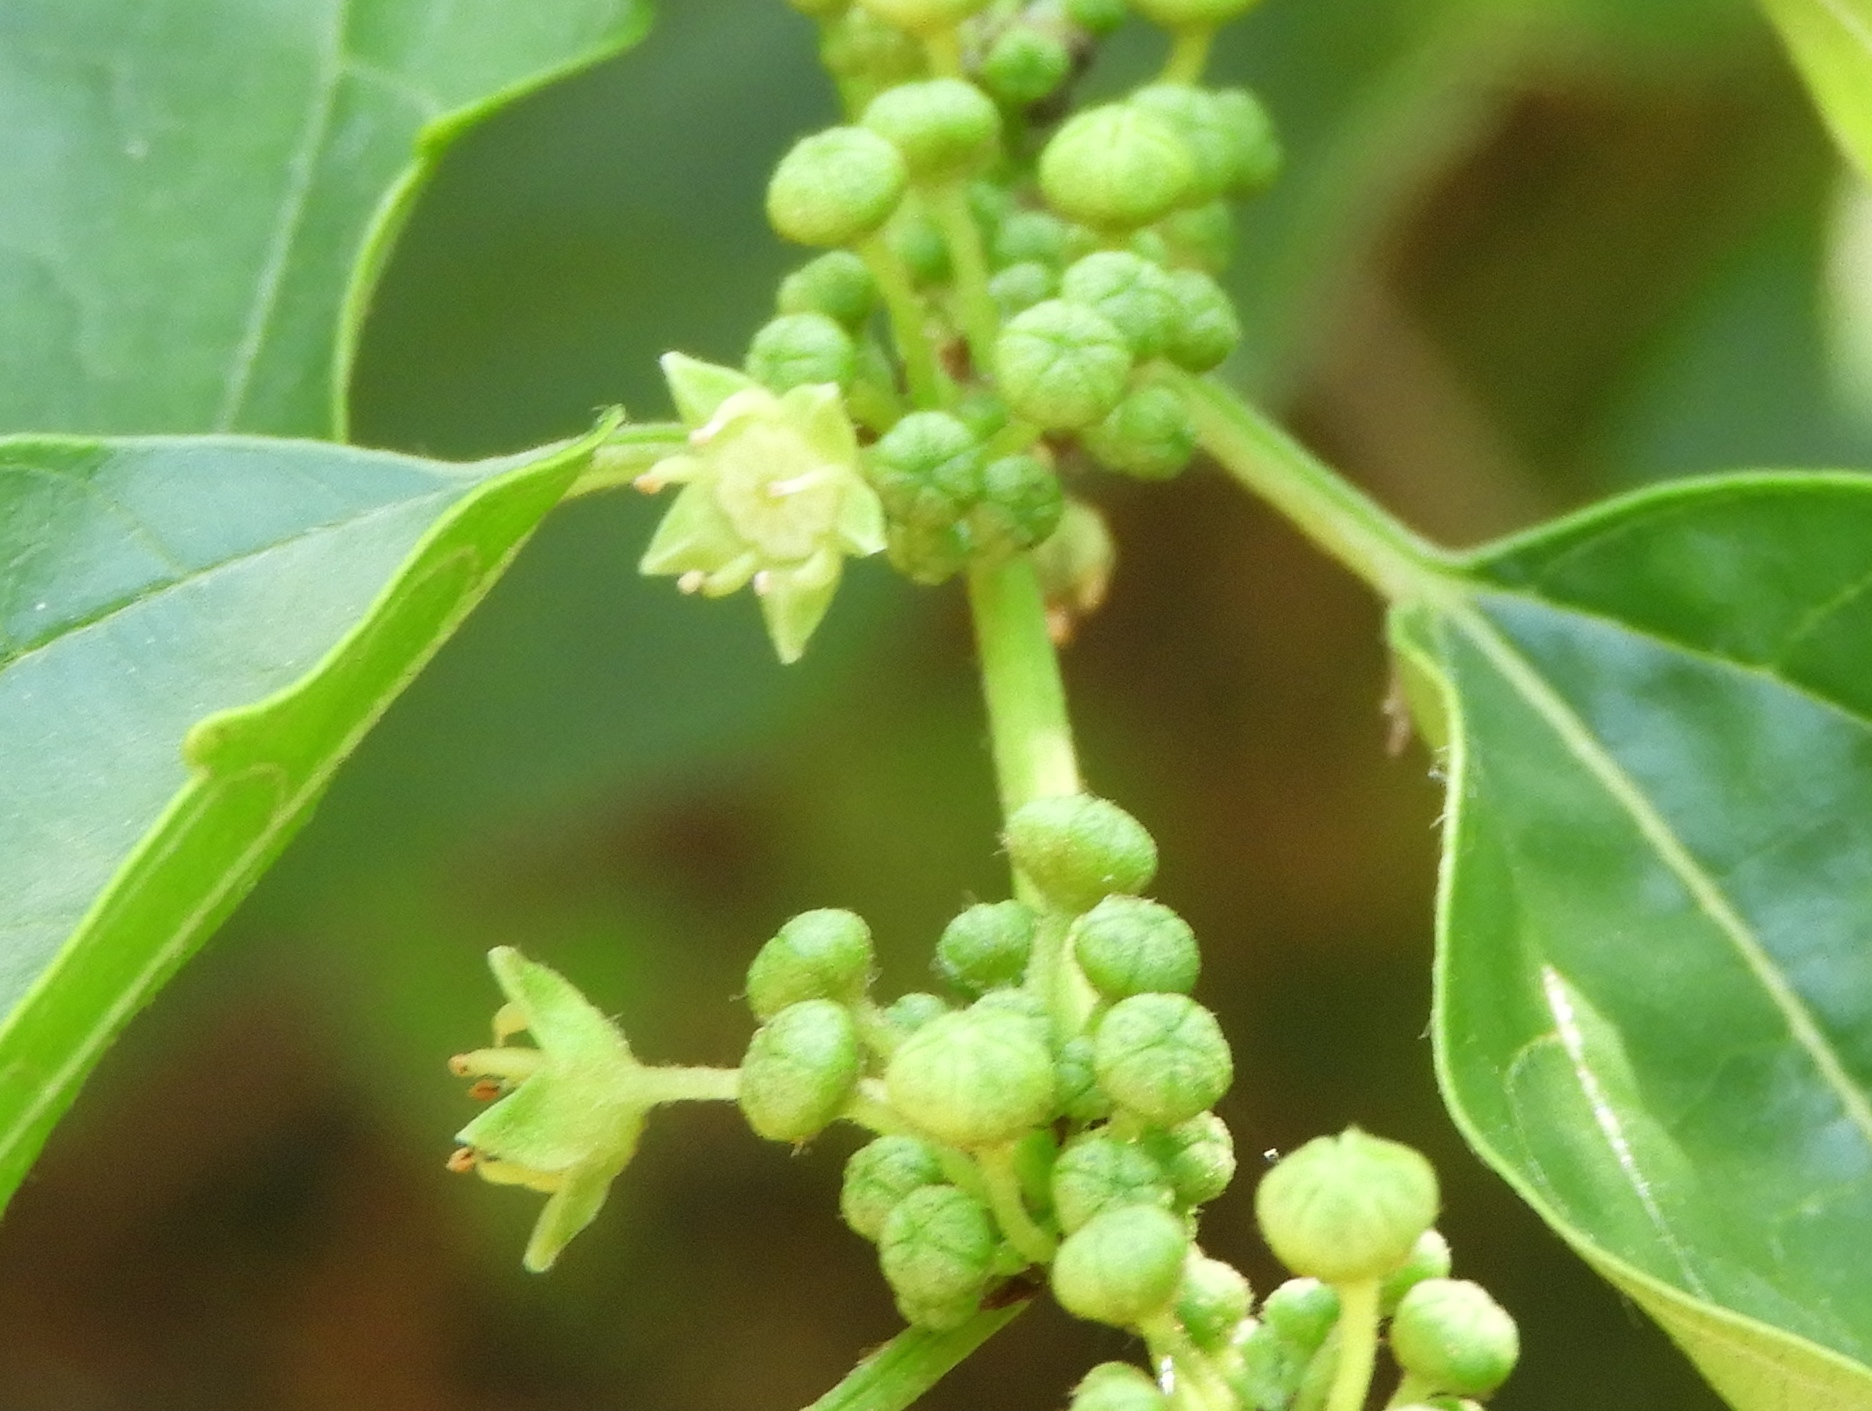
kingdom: Plantae
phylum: Tracheophyta
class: Magnoliopsida
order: Rosales
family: Rhamnaceae
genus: Colubrina
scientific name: Colubrina triflora
